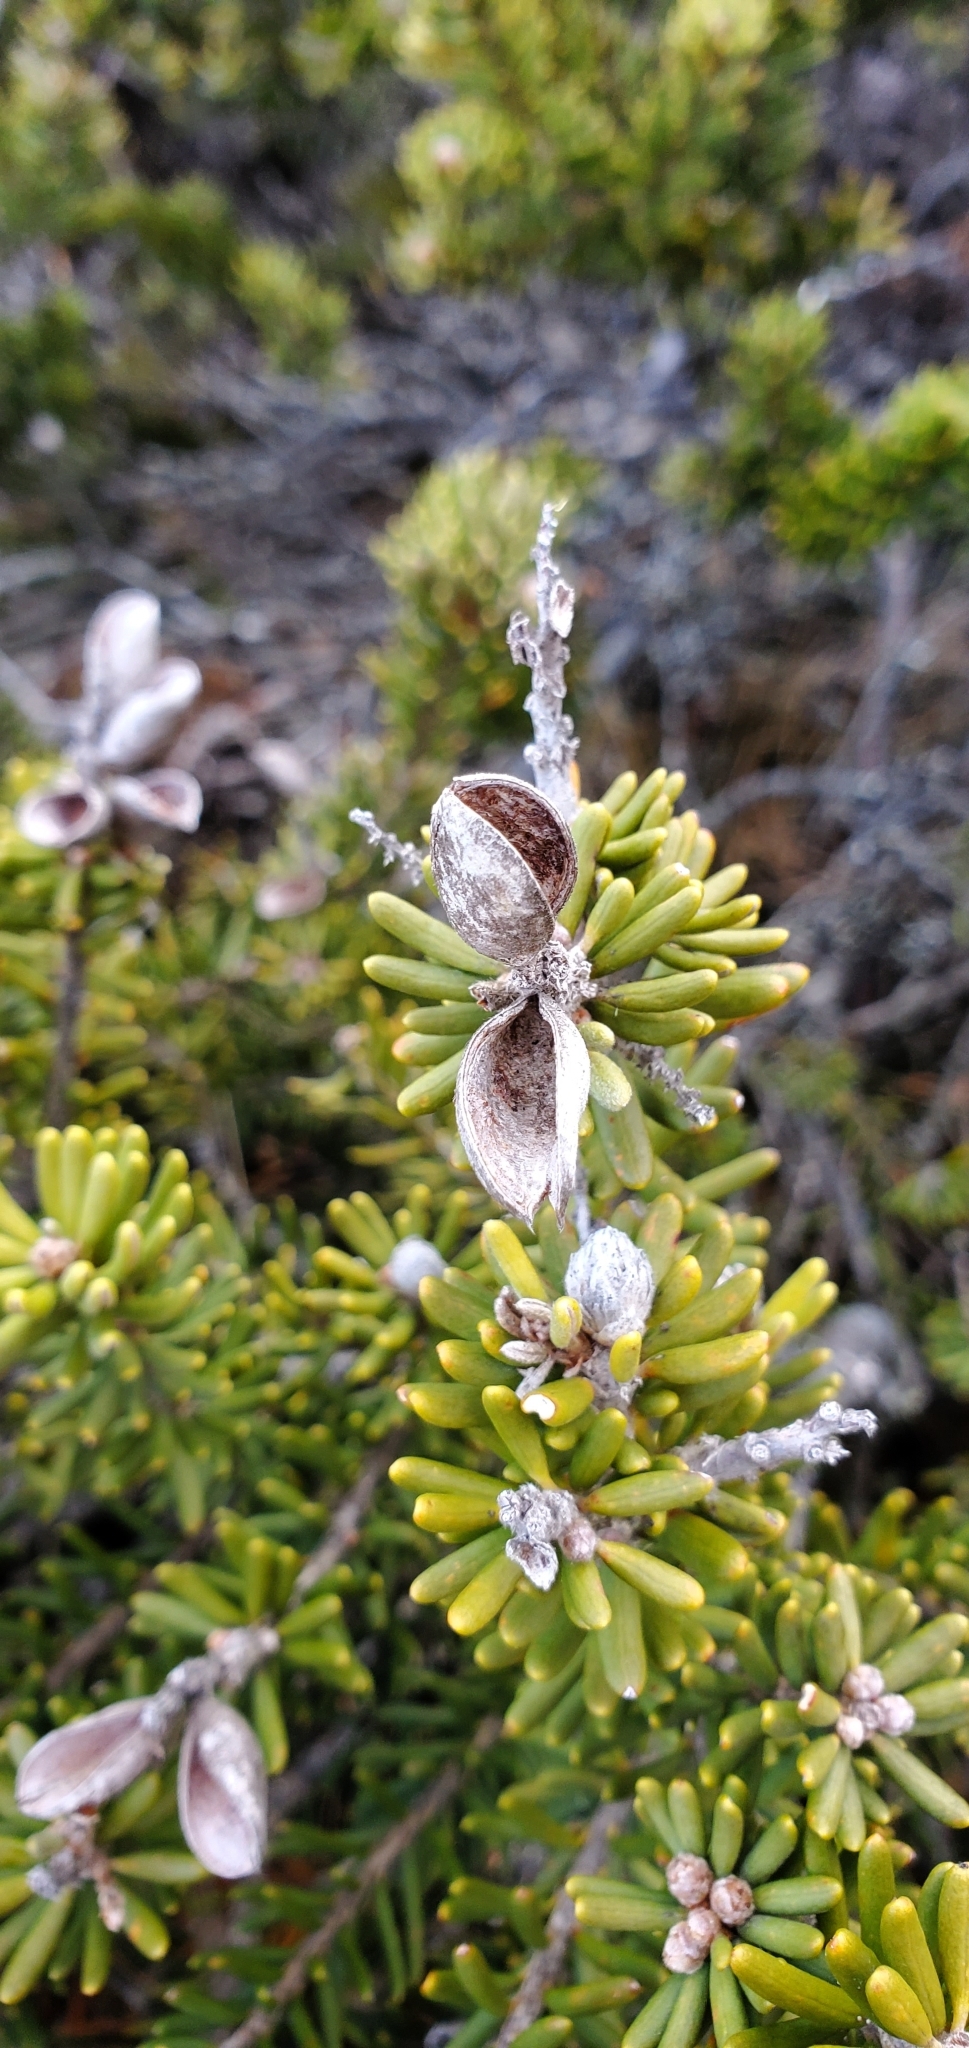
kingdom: Plantae
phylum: Tracheophyta
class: Magnoliopsida
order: Proteales
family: Proteaceae
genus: Orites
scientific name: Orites revolutus
